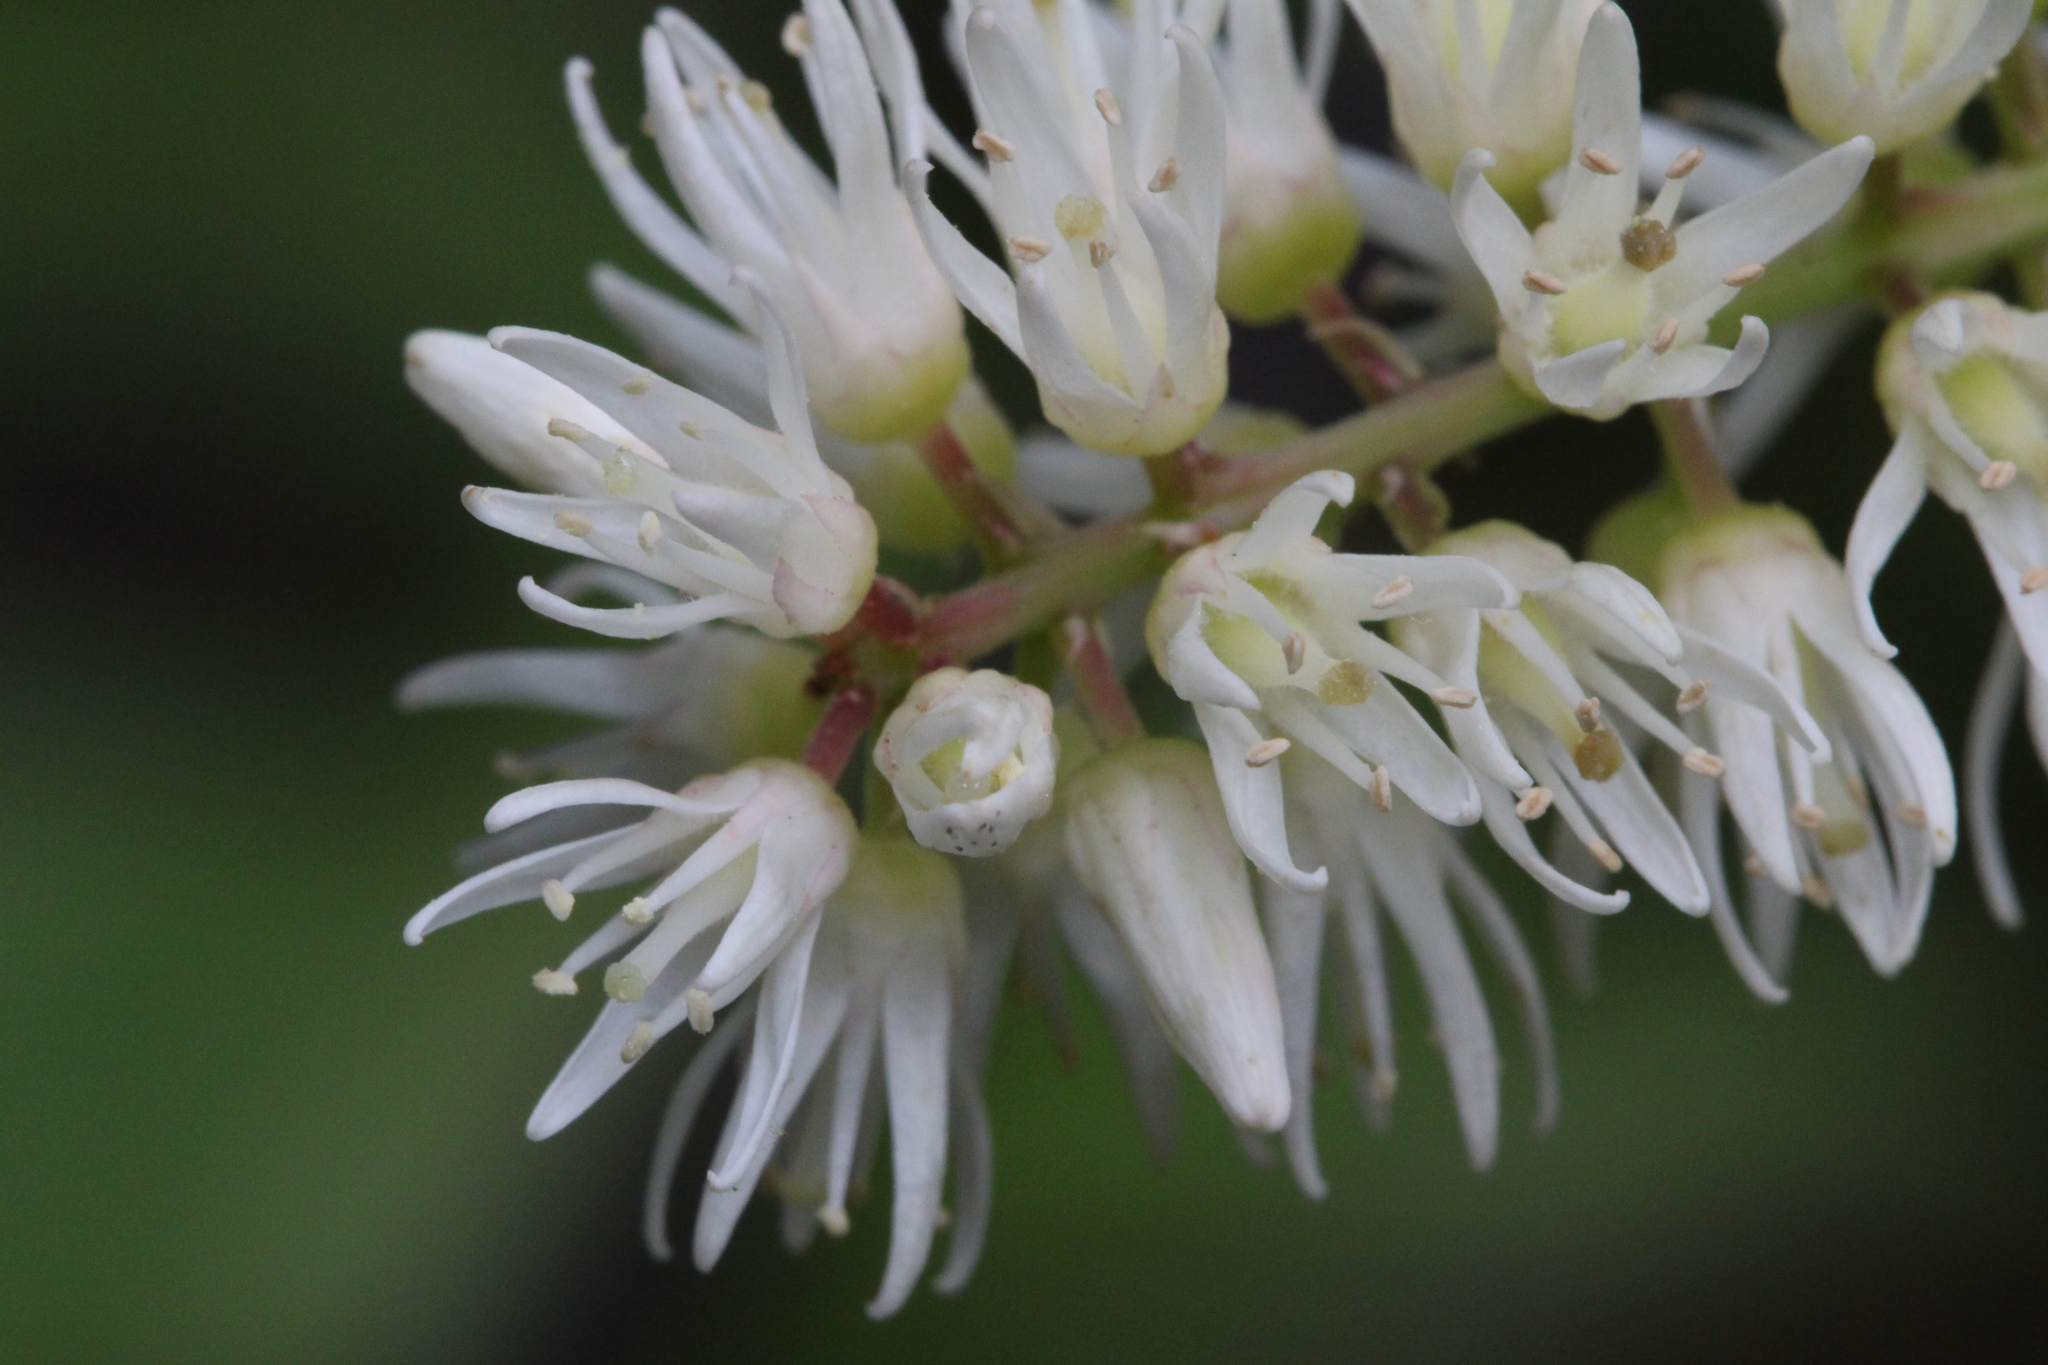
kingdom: Plantae
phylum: Tracheophyta
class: Magnoliopsida
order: Saxifragales
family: Iteaceae
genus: Itea
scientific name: Itea virginica
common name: Sweetspire
